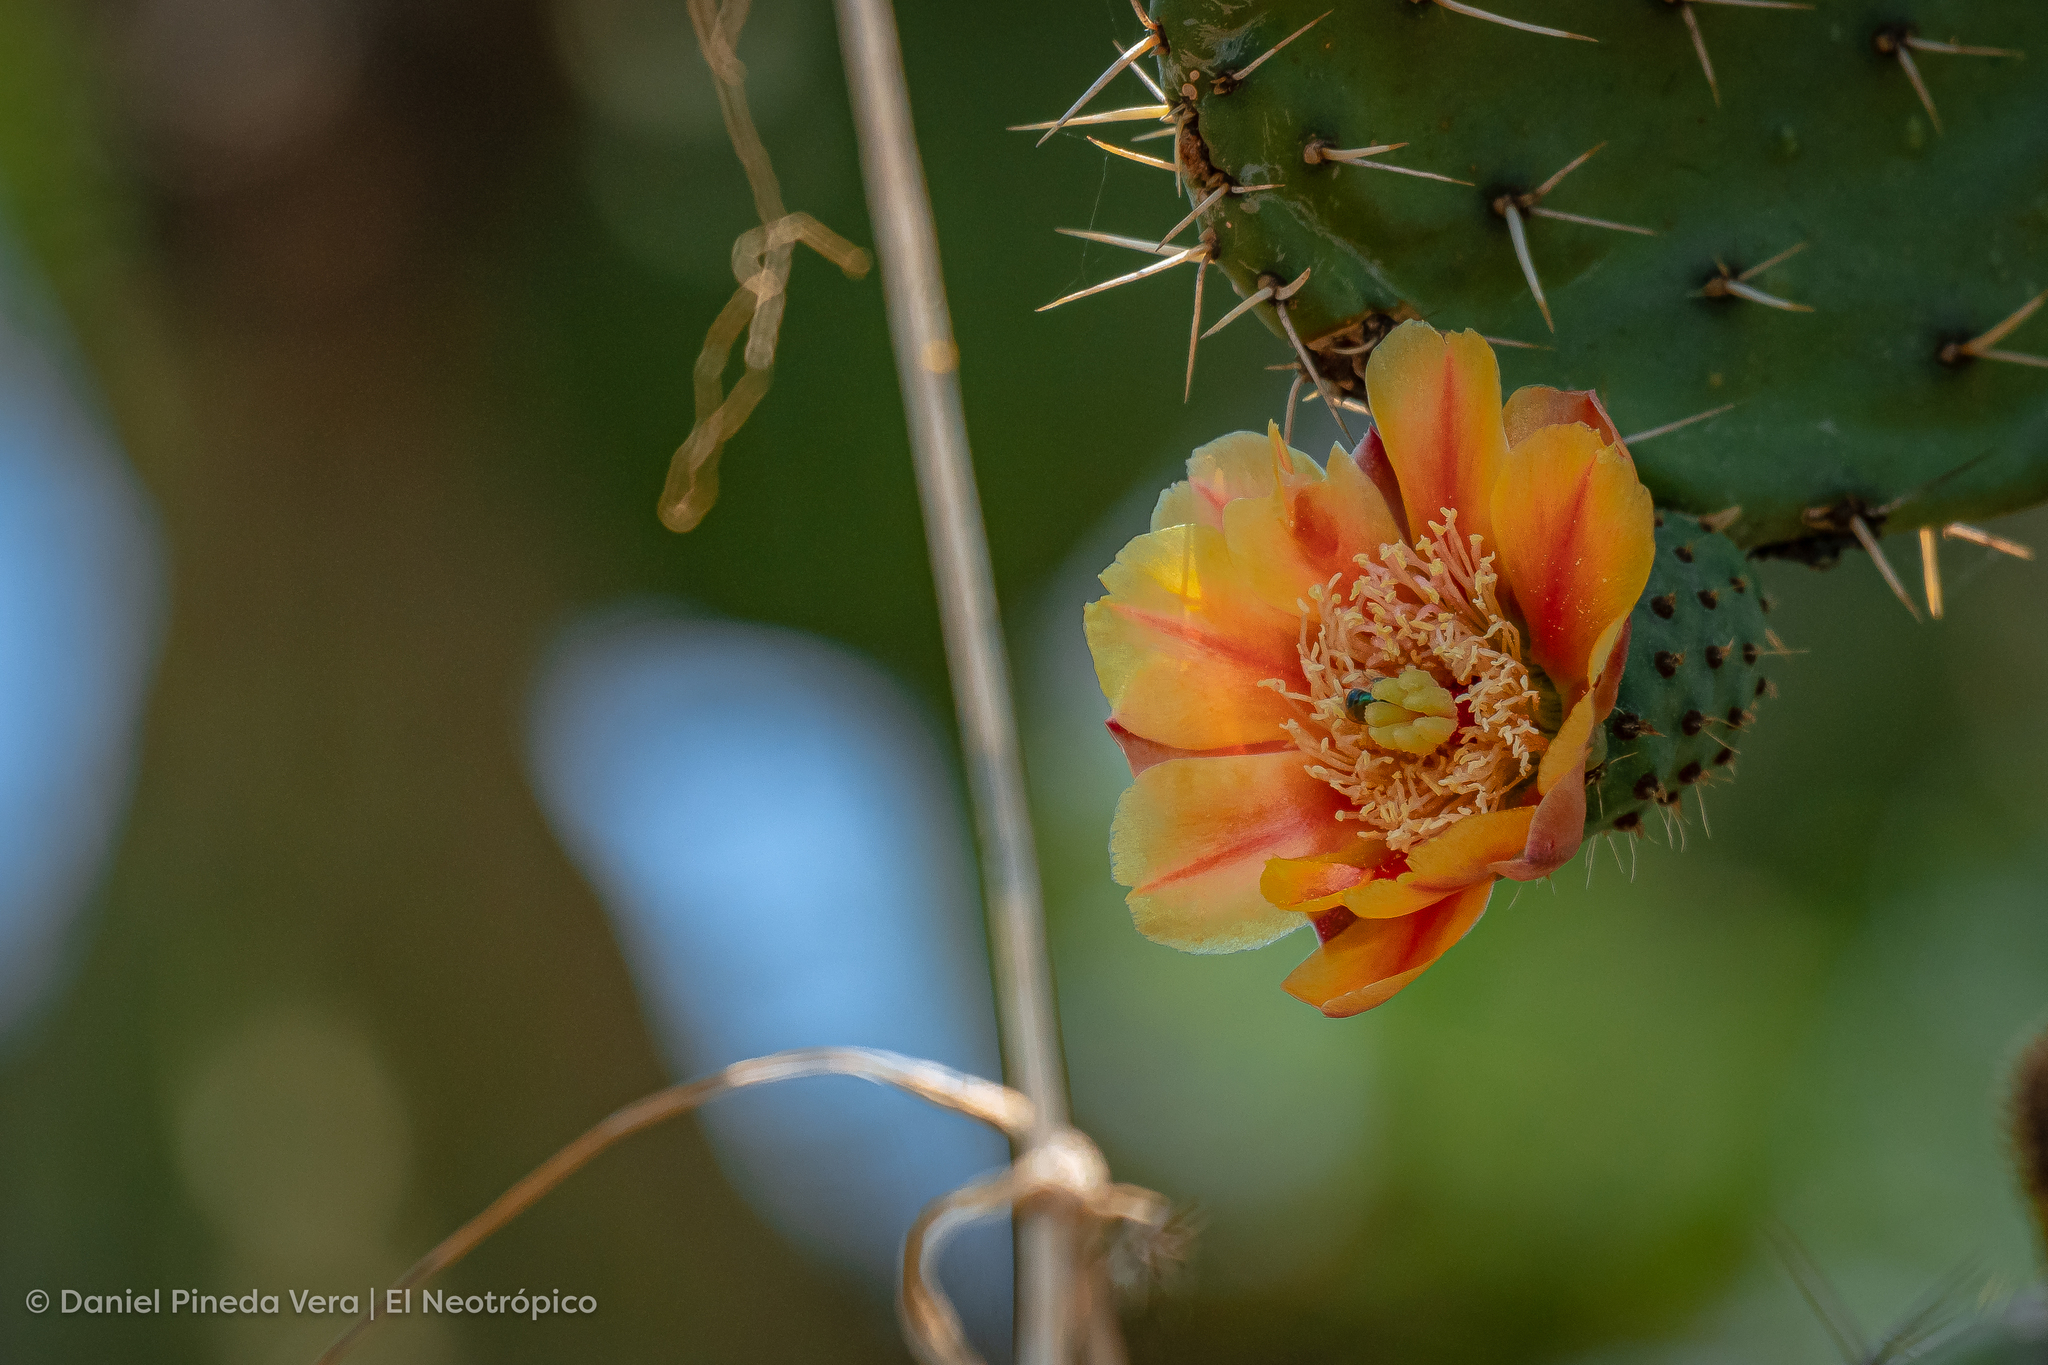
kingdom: Plantae
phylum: Tracheophyta
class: Magnoliopsida
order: Caryophyllales
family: Cactaceae
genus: Opuntia
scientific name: Opuntia lasiacantha
